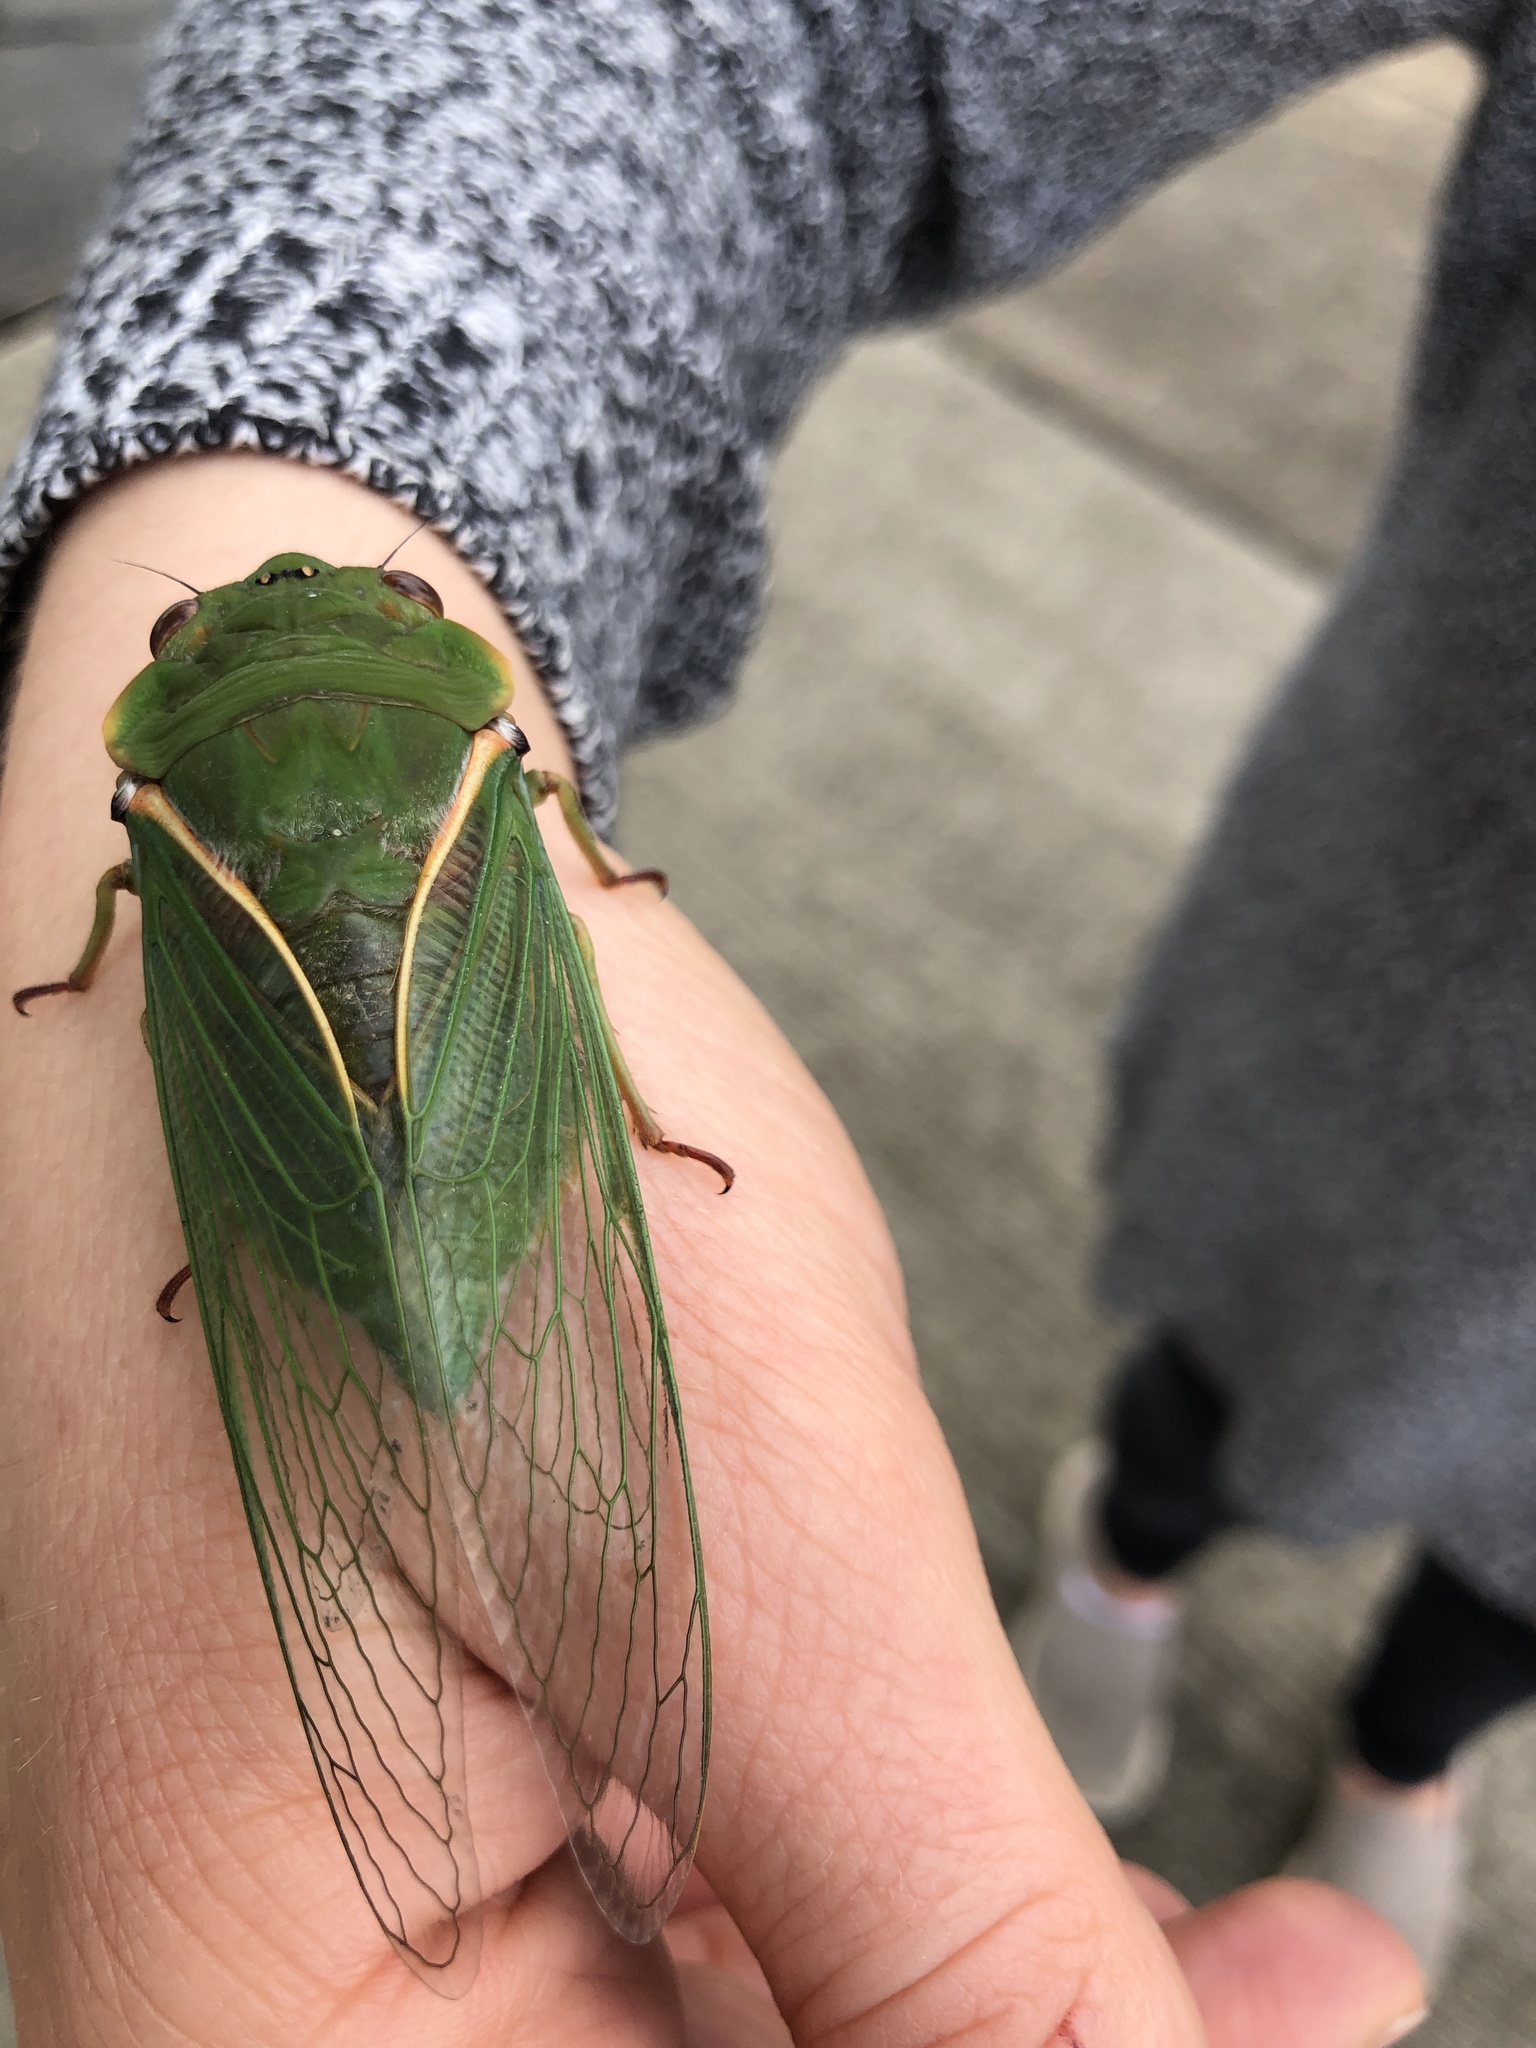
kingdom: Animalia
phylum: Arthropoda
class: Insecta
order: Hemiptera
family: Cicadidae
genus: Cyclochila
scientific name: Cyclochila australasiae
